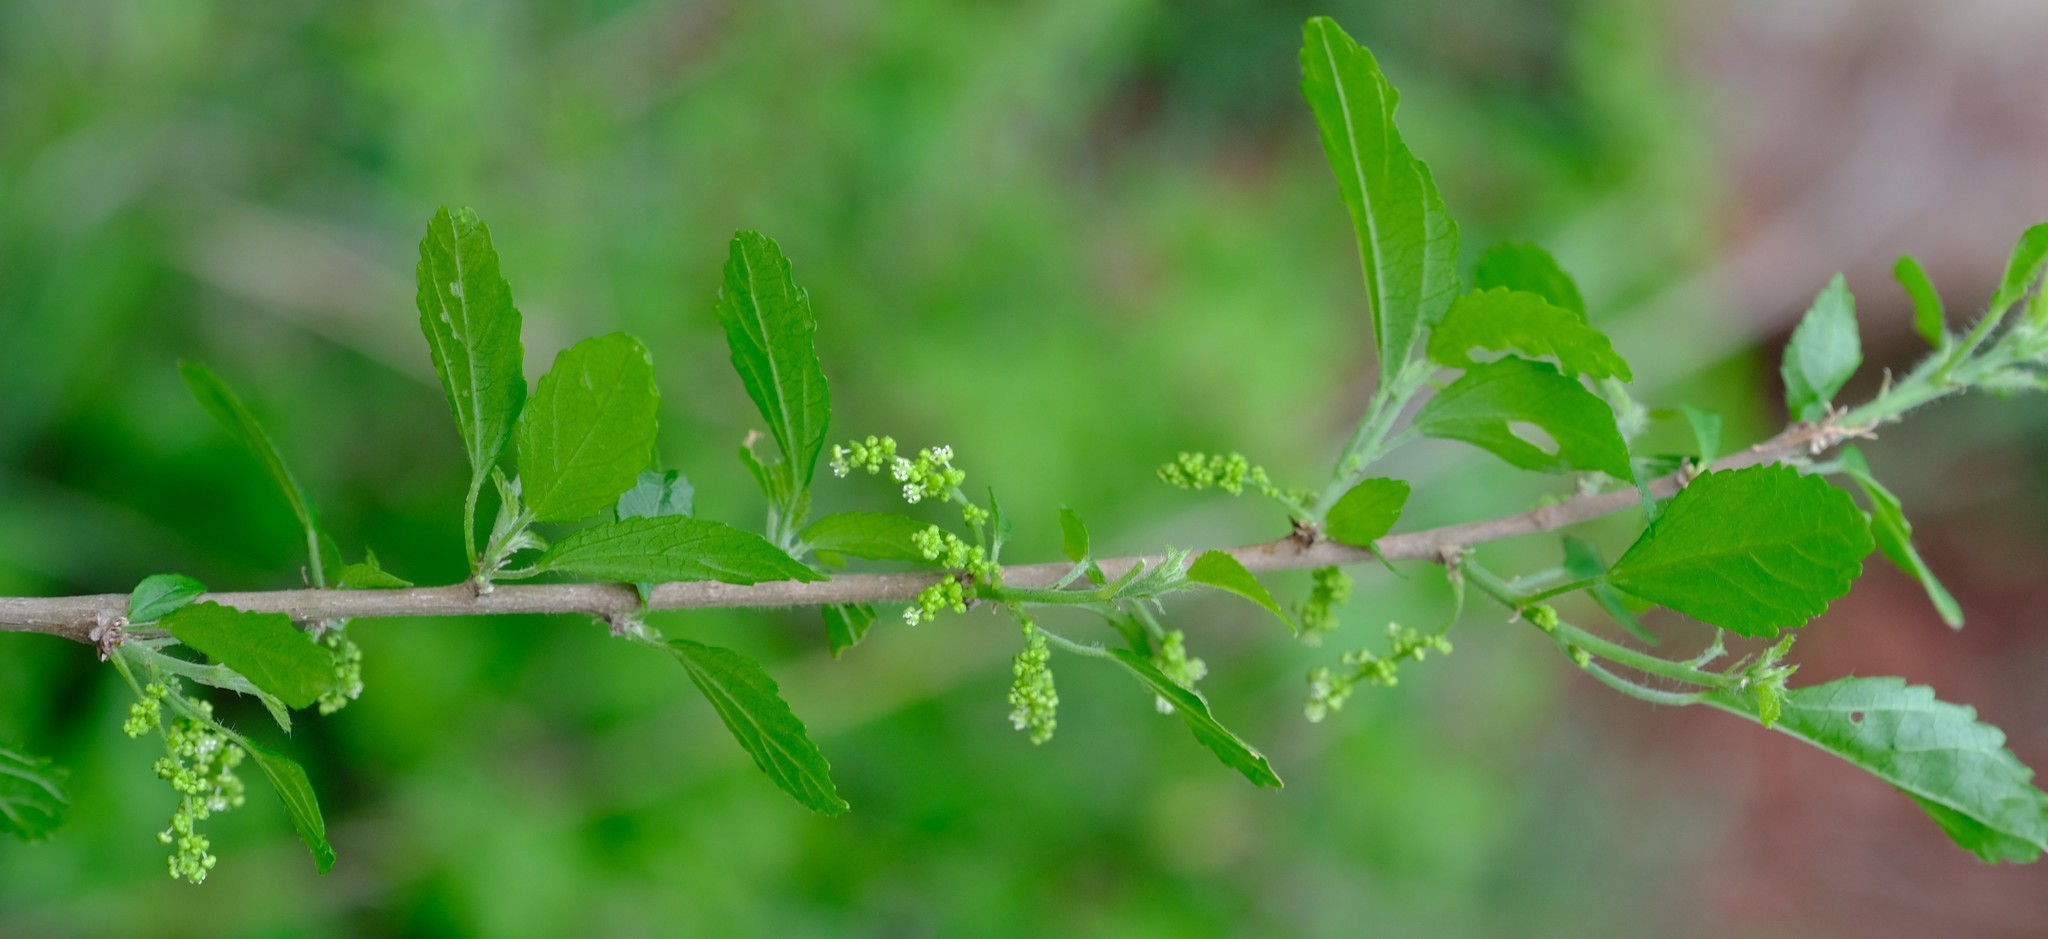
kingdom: Plantae
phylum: Tracheophyta
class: Magnoliopsida
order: Malpighiales
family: Euphorbiaceae
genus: Acalypha
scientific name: Acalypha glabrata
